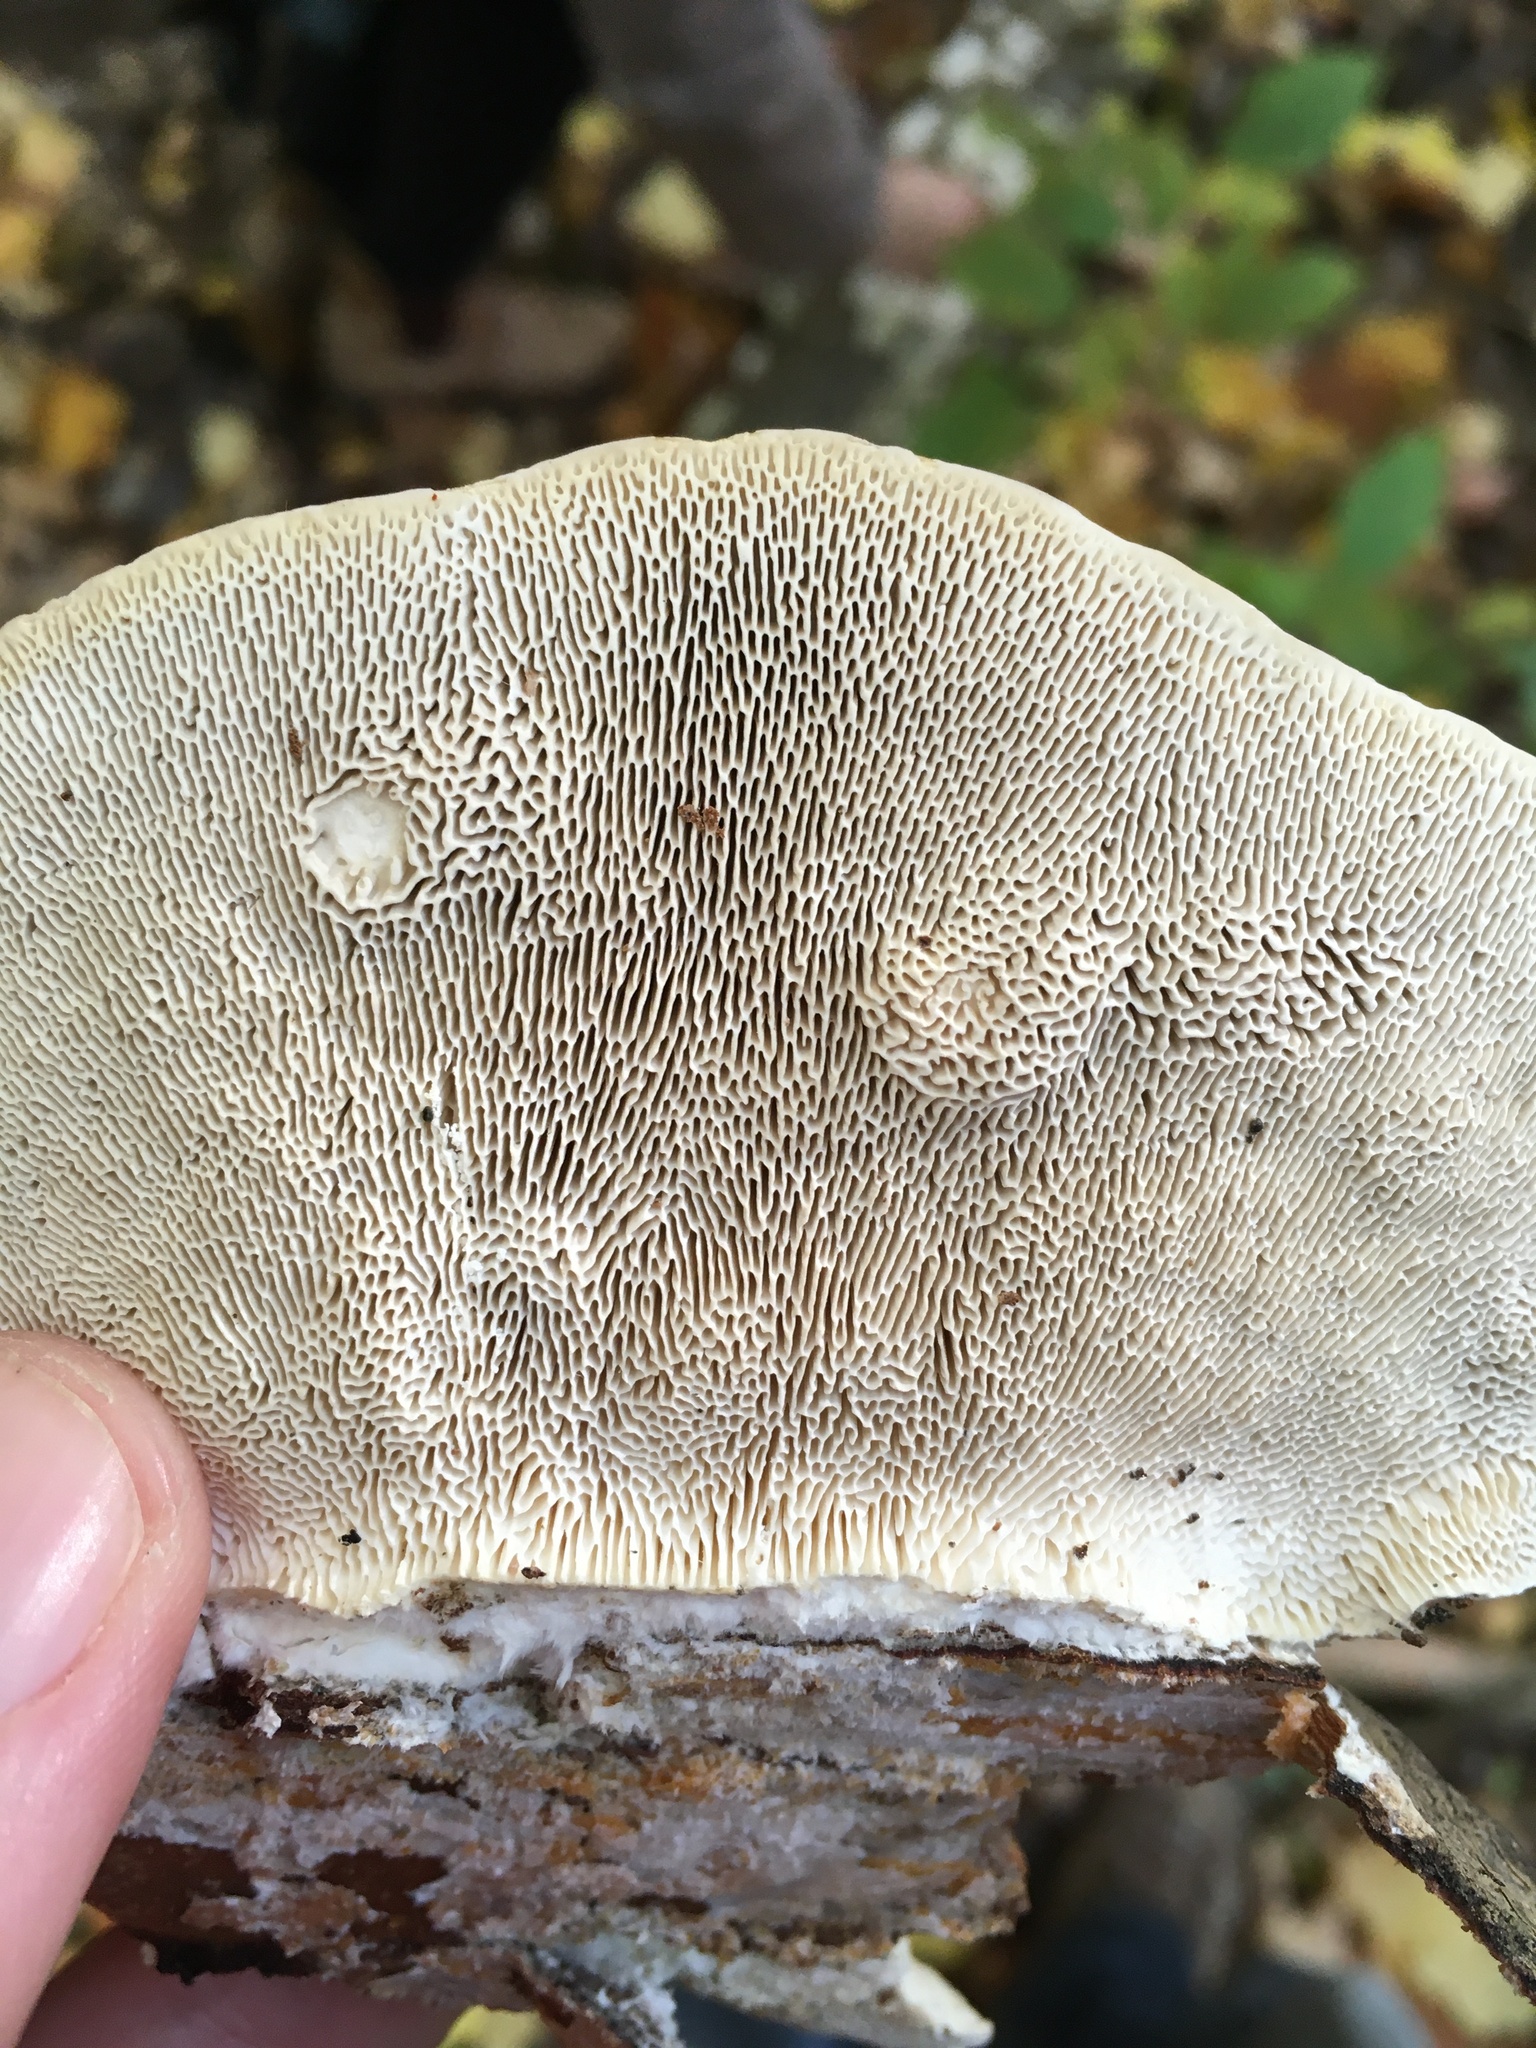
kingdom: Fungi
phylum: Basidiomycota
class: Agaricomycetes
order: Polyporales
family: Polyporaceae
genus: Trametes
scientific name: Trametes gibbosa
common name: Lumpy bracket
